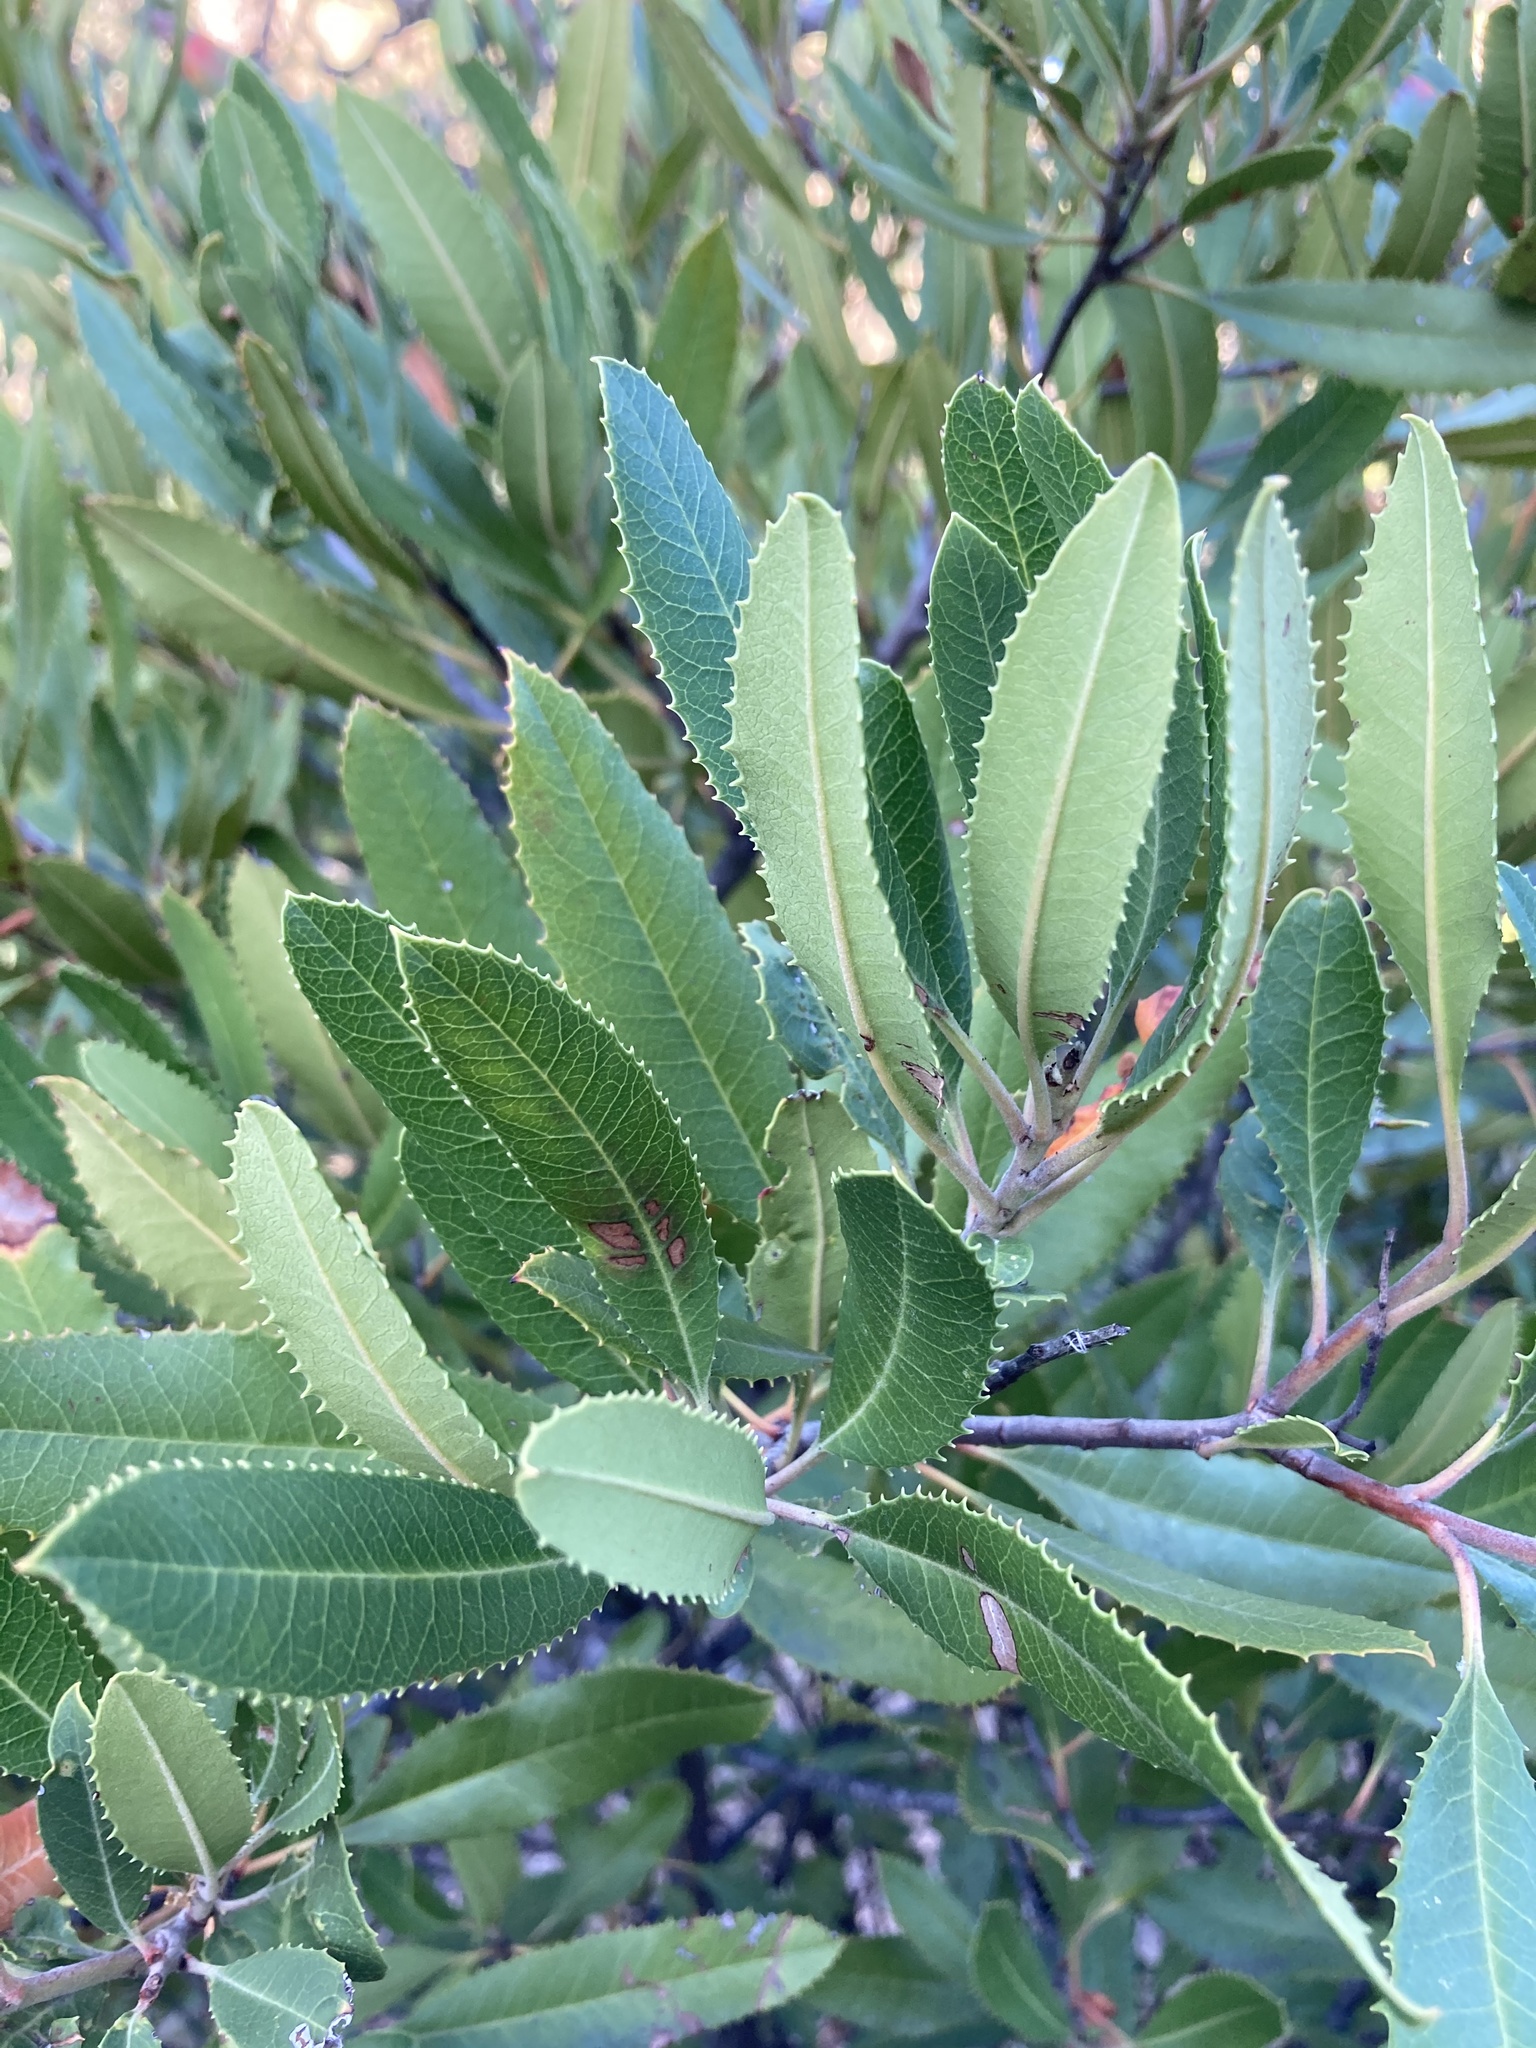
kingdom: Plantae
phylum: Tracheophyta
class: Magnoliopsida
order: Rosales
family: Rosaceae
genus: Heteromeles
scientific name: Heteromeles arbutifolia
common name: California-holly
